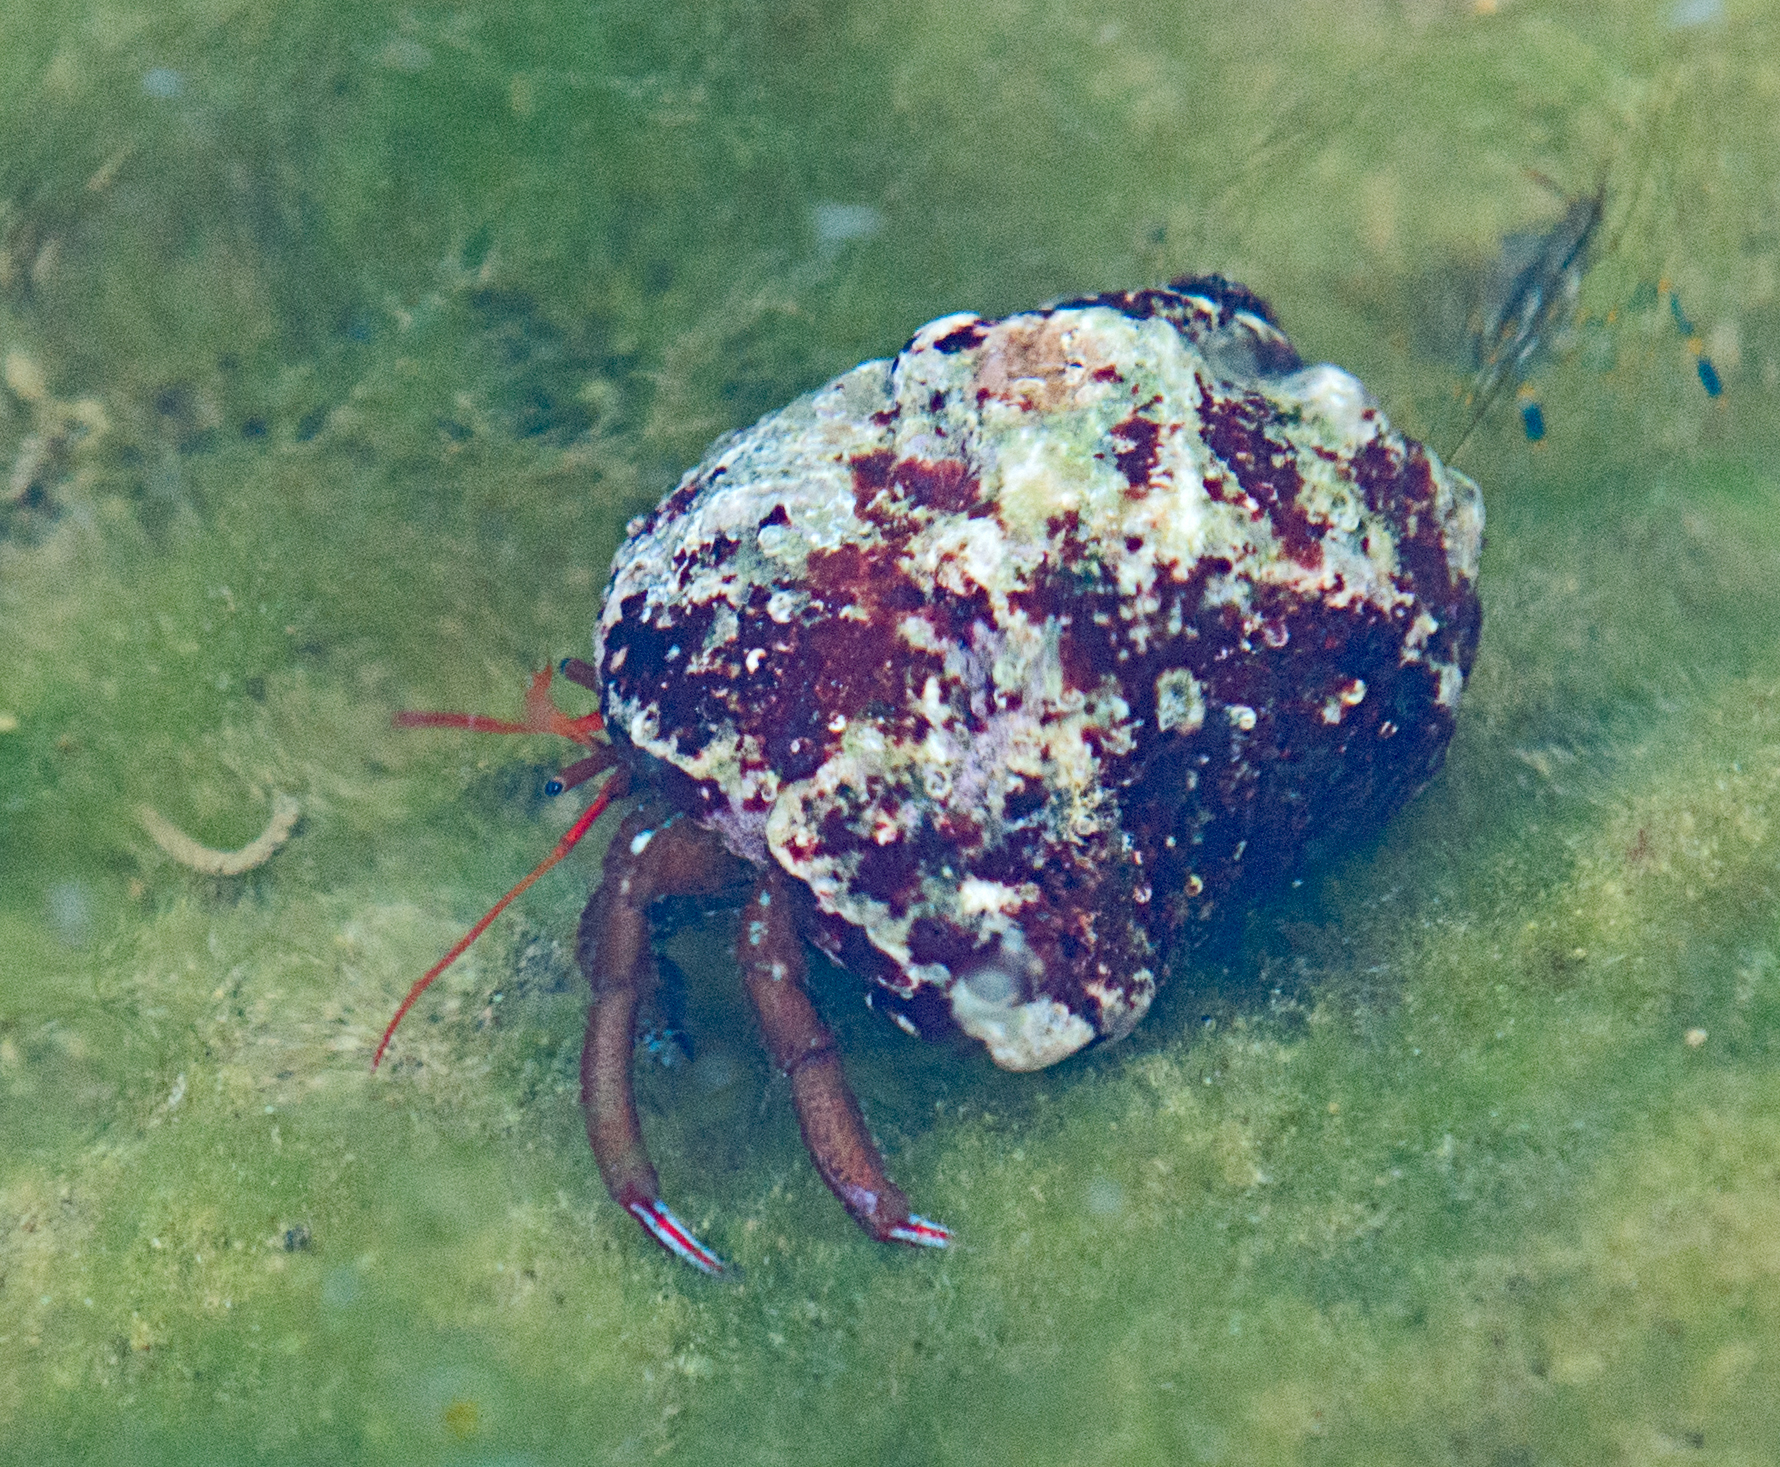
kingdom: Animalia
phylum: Arthropoda
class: Malacostraca
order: Decapoda
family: Diogenidae
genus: Clibanarius
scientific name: Clibanarius erythropus
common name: Hermit crab
